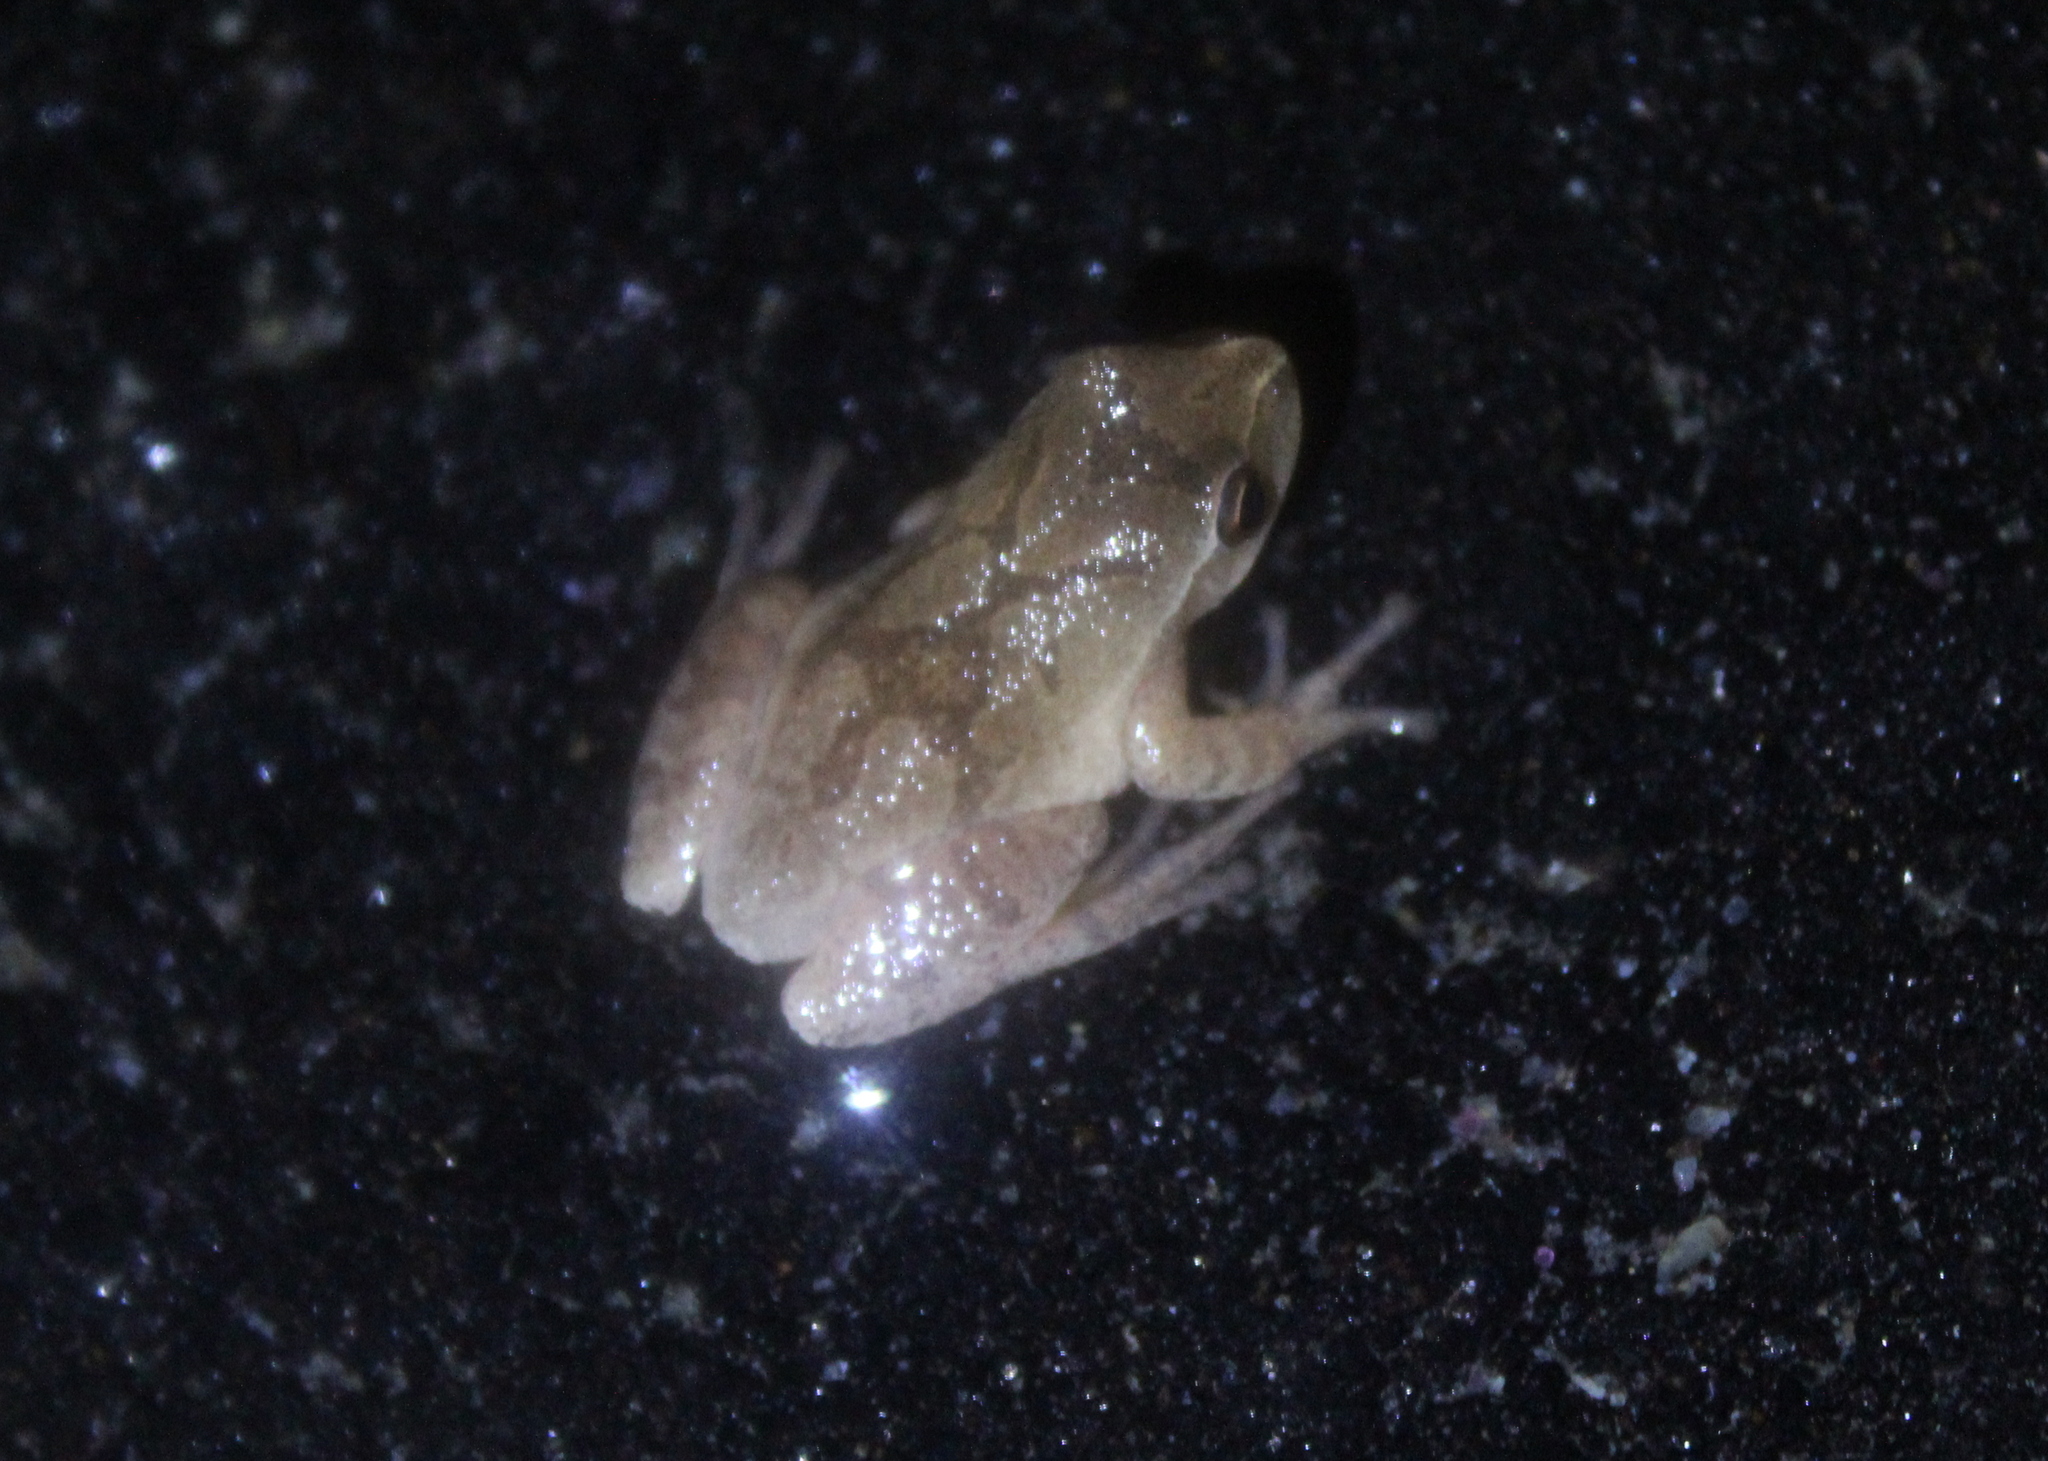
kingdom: Animalia
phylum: Chordata
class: Amphibia
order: Anura
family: Hylidae
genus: Pseudacris
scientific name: Pseudacris crucifer
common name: Spring peeper
